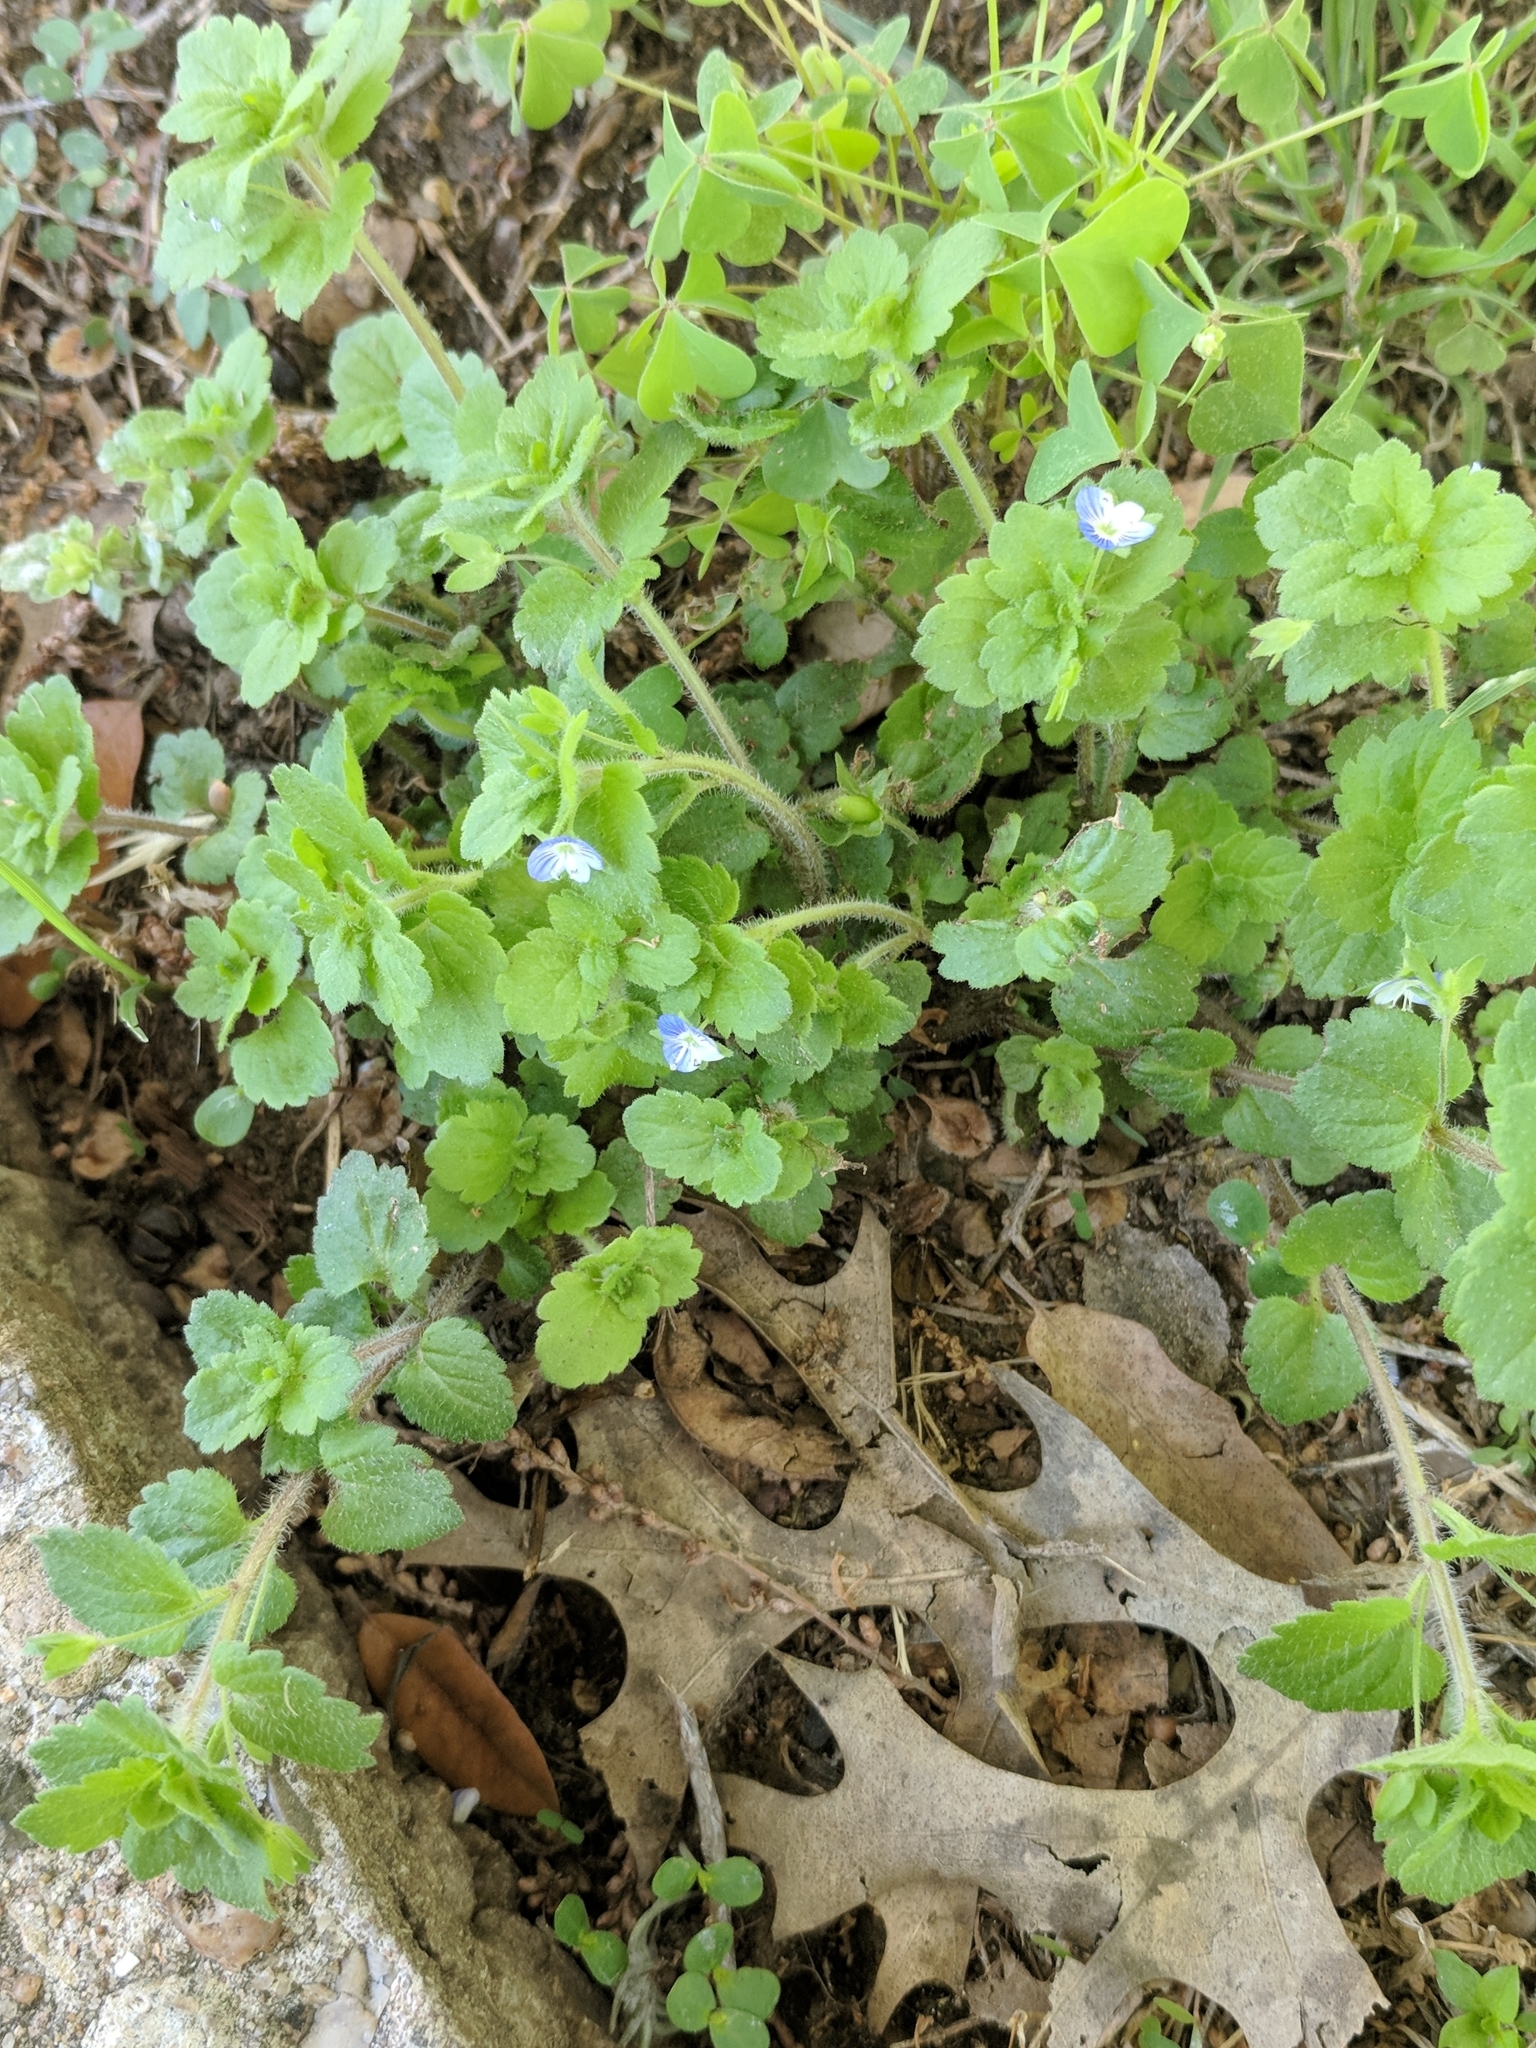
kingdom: Plantae
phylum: Tracheophyta
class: Magnoliopsida
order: Lamiales
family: Plantaginaceae
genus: Veronica
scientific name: Veronica persica
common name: Common field-speedwell
